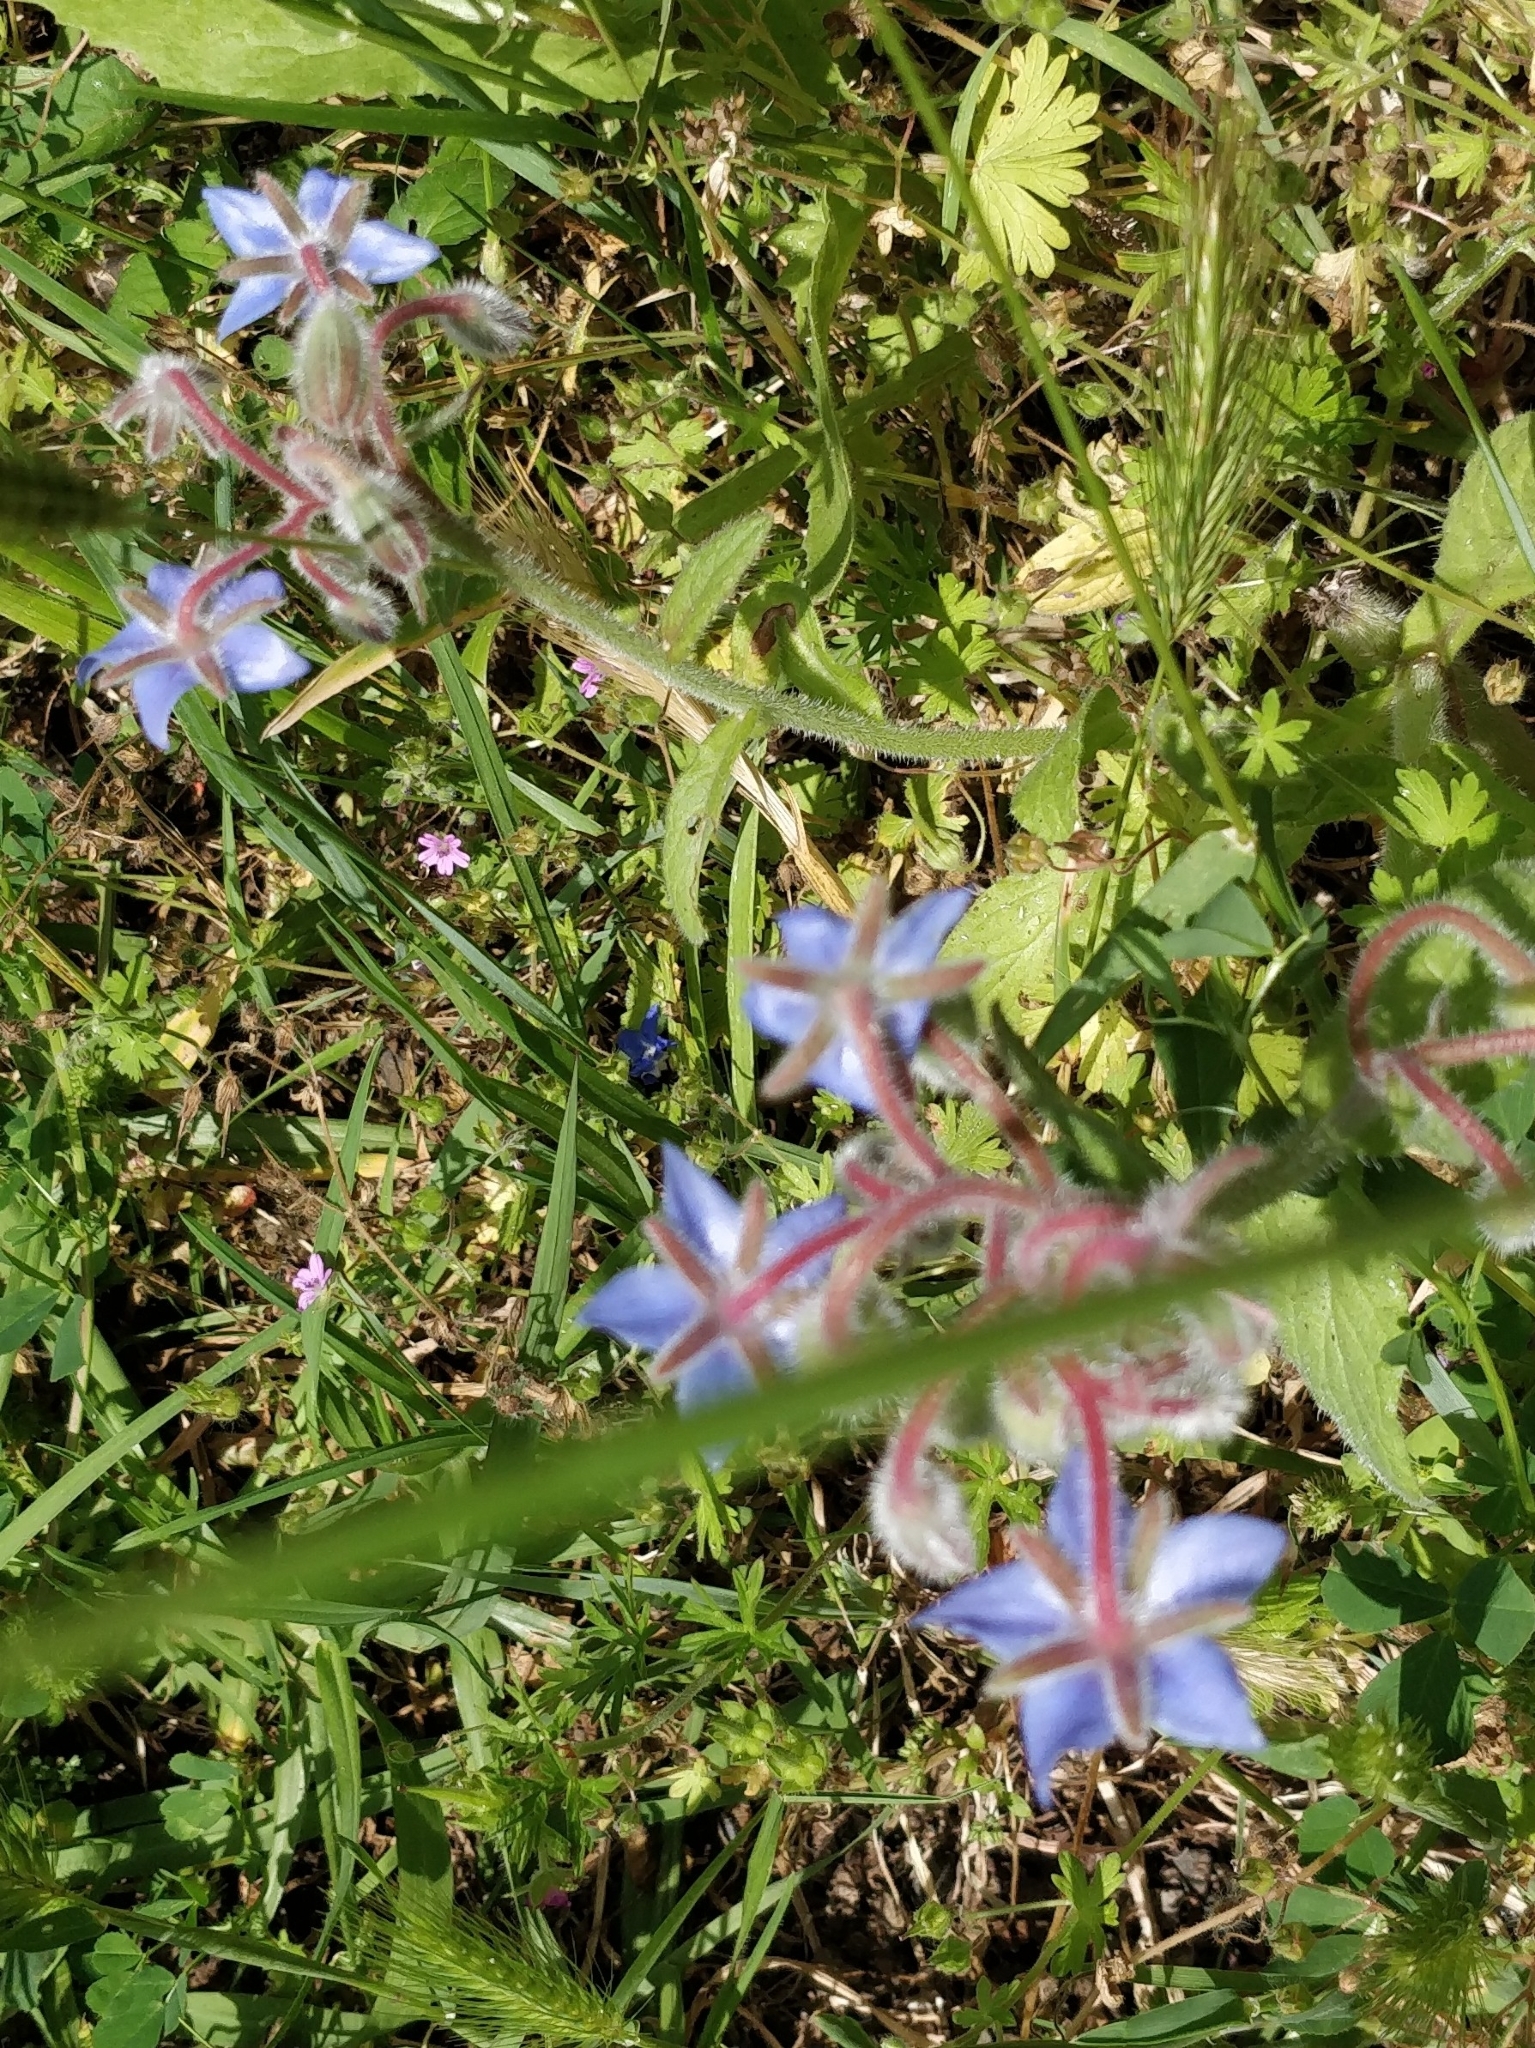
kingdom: Plantae
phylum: Tracheophyta
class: Magnoliopsida
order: Boraginales
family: Boraginaceae
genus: Borago
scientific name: Borago officinalis
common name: Borage
